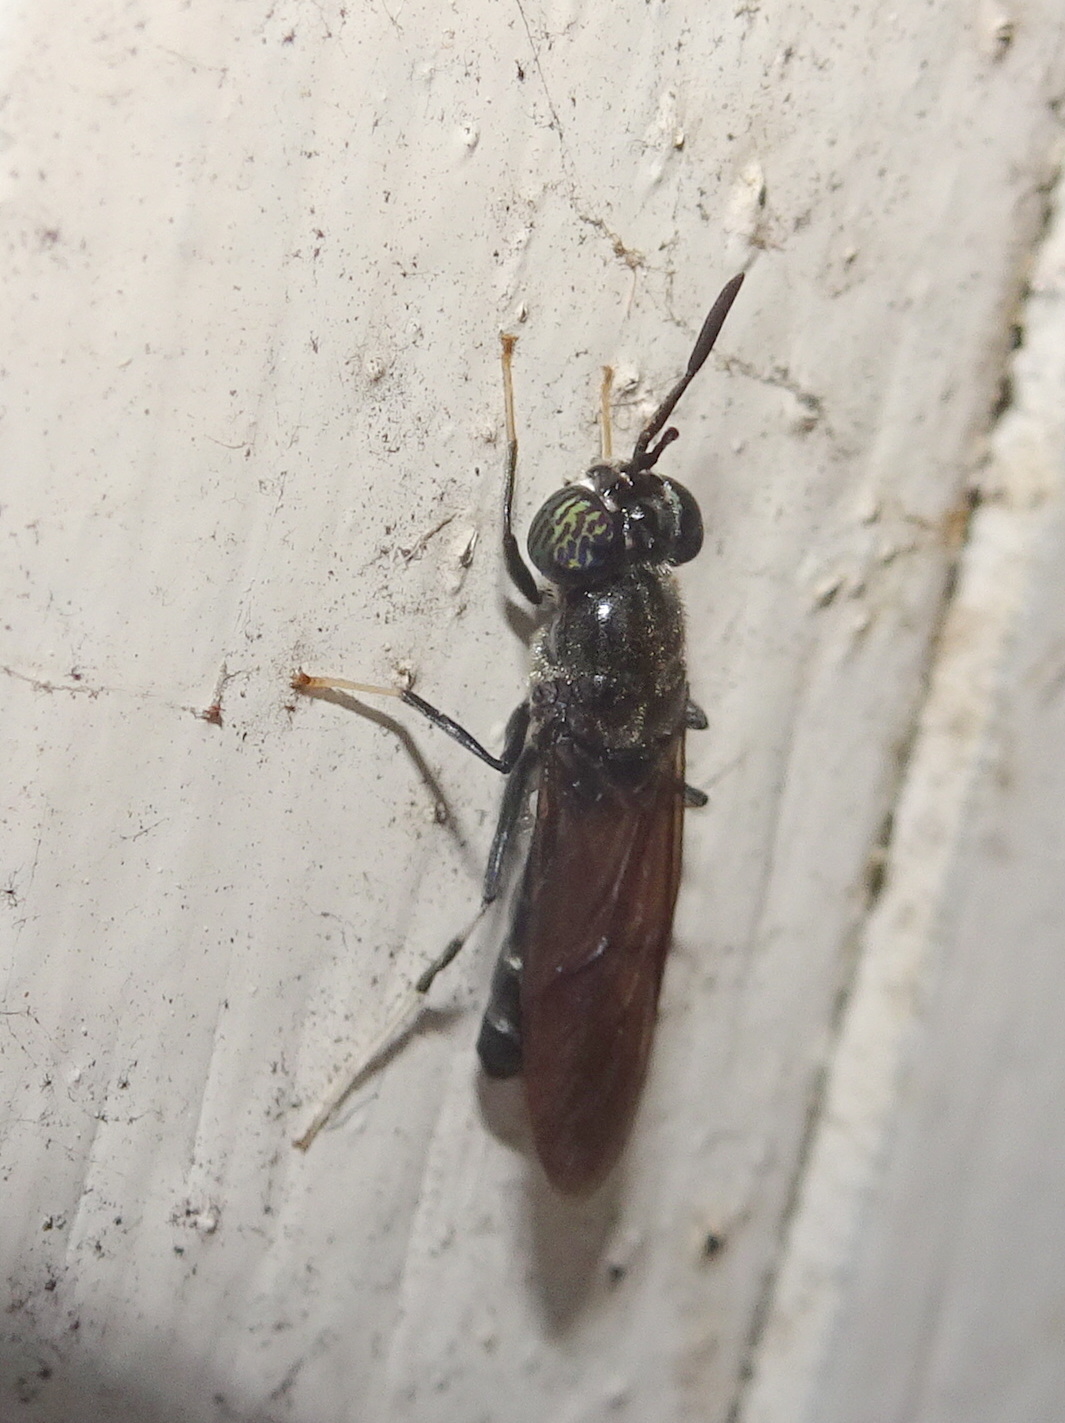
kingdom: Animalia
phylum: Arthropoda
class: Insecta
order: Diptera
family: Stratiomyidae
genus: Hermetia
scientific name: Hermetia illucens
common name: Black soldier fly
